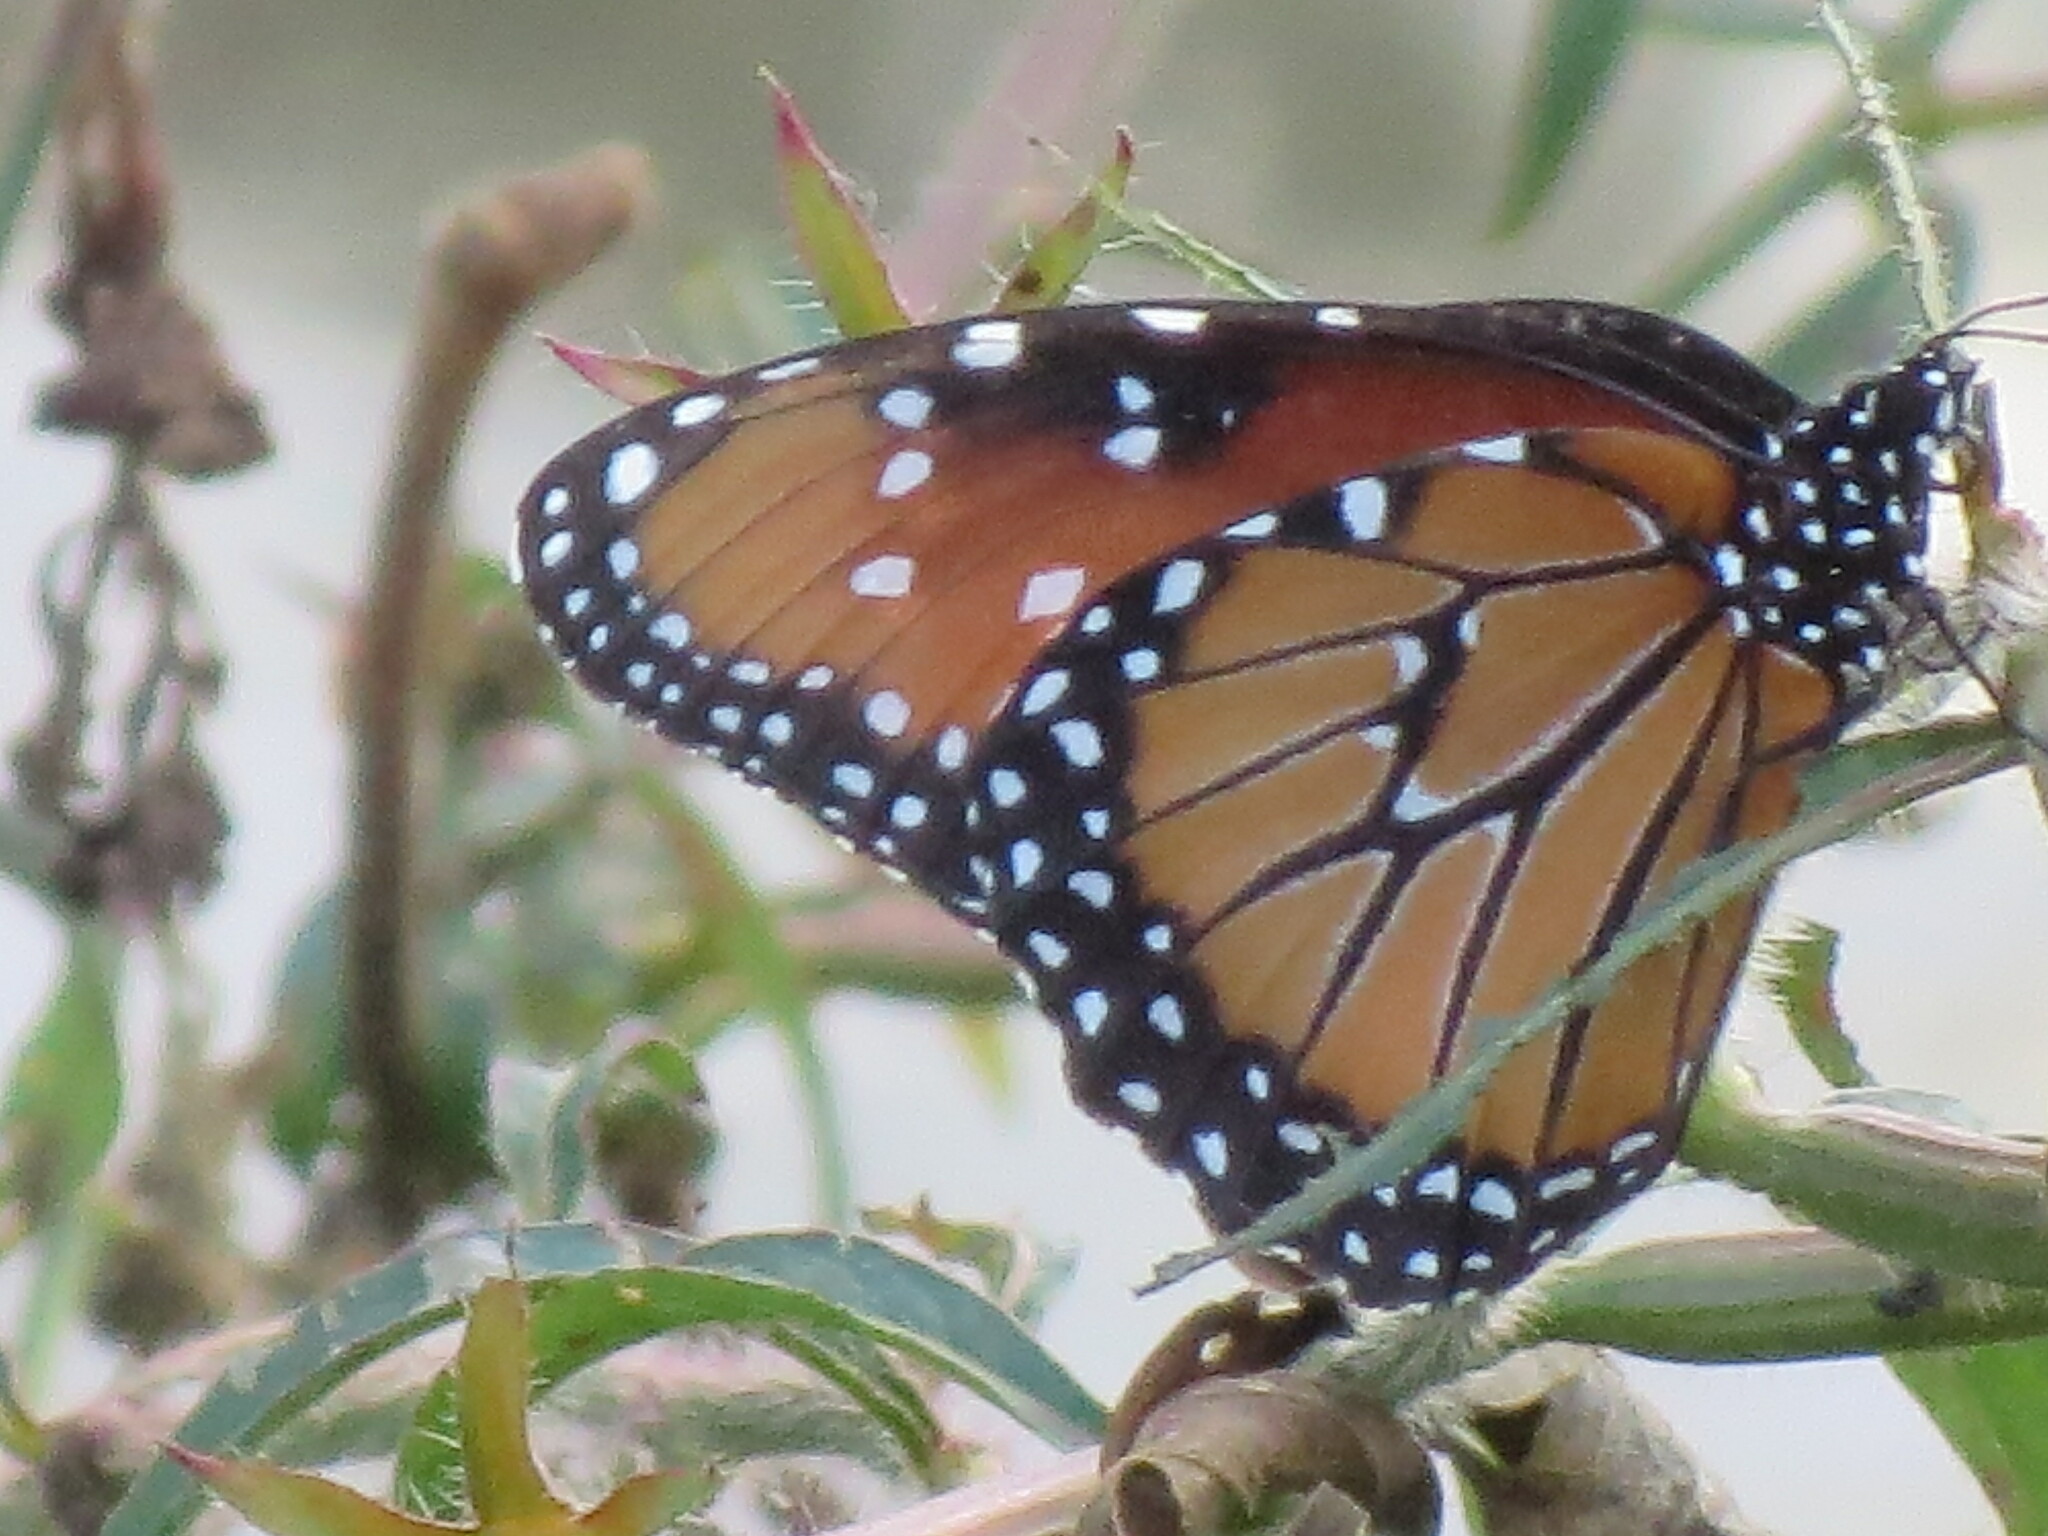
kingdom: Animalia
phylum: Arthropoda
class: Insecta
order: Lepidoptera
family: Nymphalidae
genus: Danaus
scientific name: Danaus gilippus
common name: Queen
